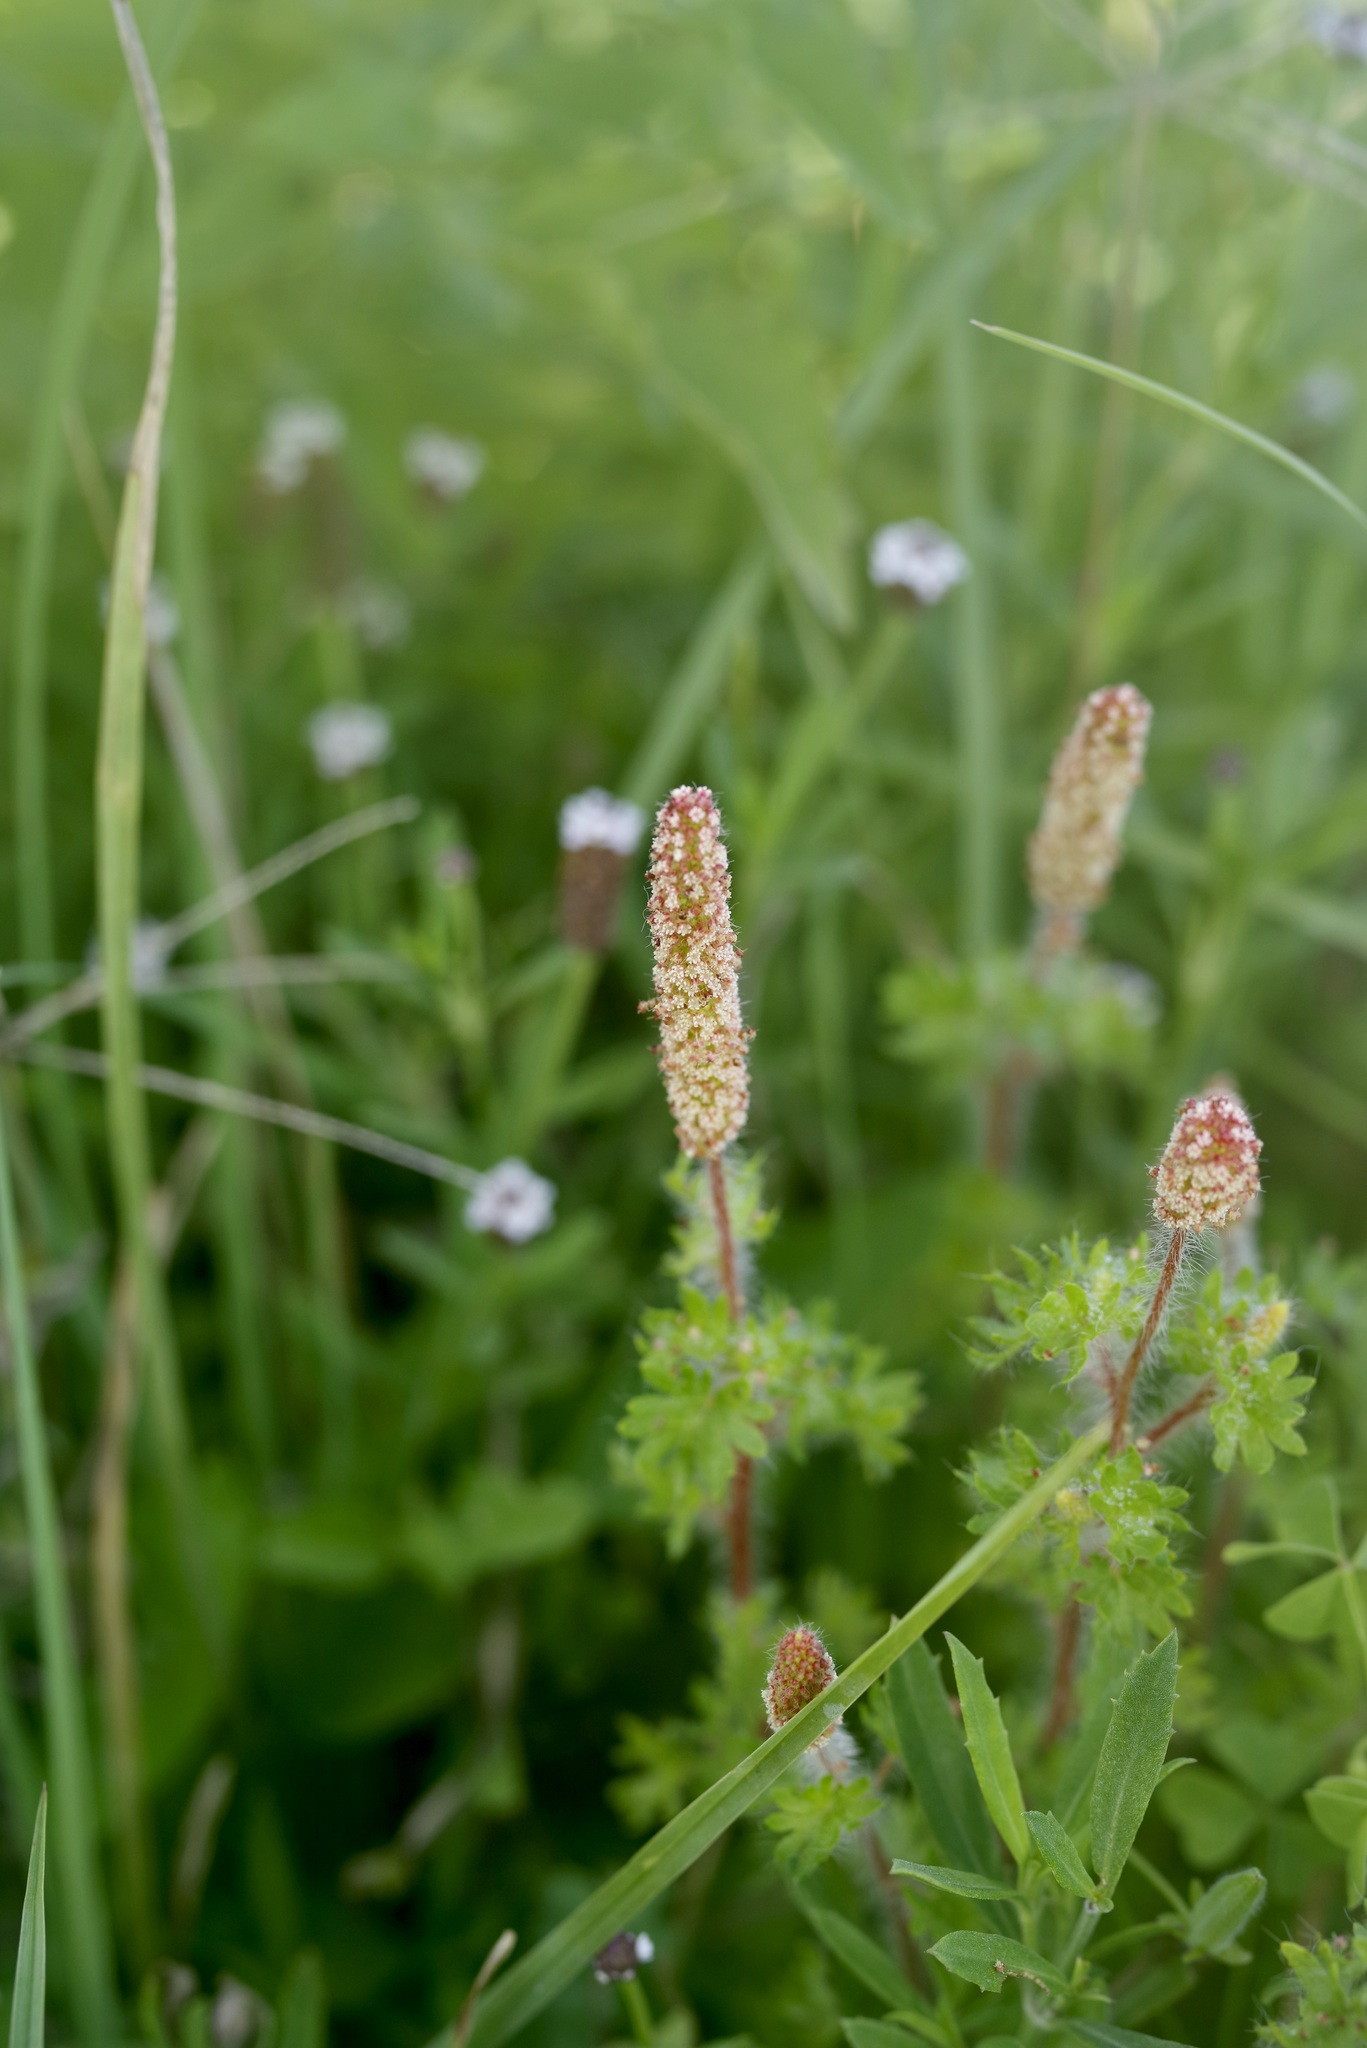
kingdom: Plantae
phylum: Tracheophyta
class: Magnoliopsida
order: Malpighiales
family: Euphorbiaceae
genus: Acalypha
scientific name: Acalypha radians
